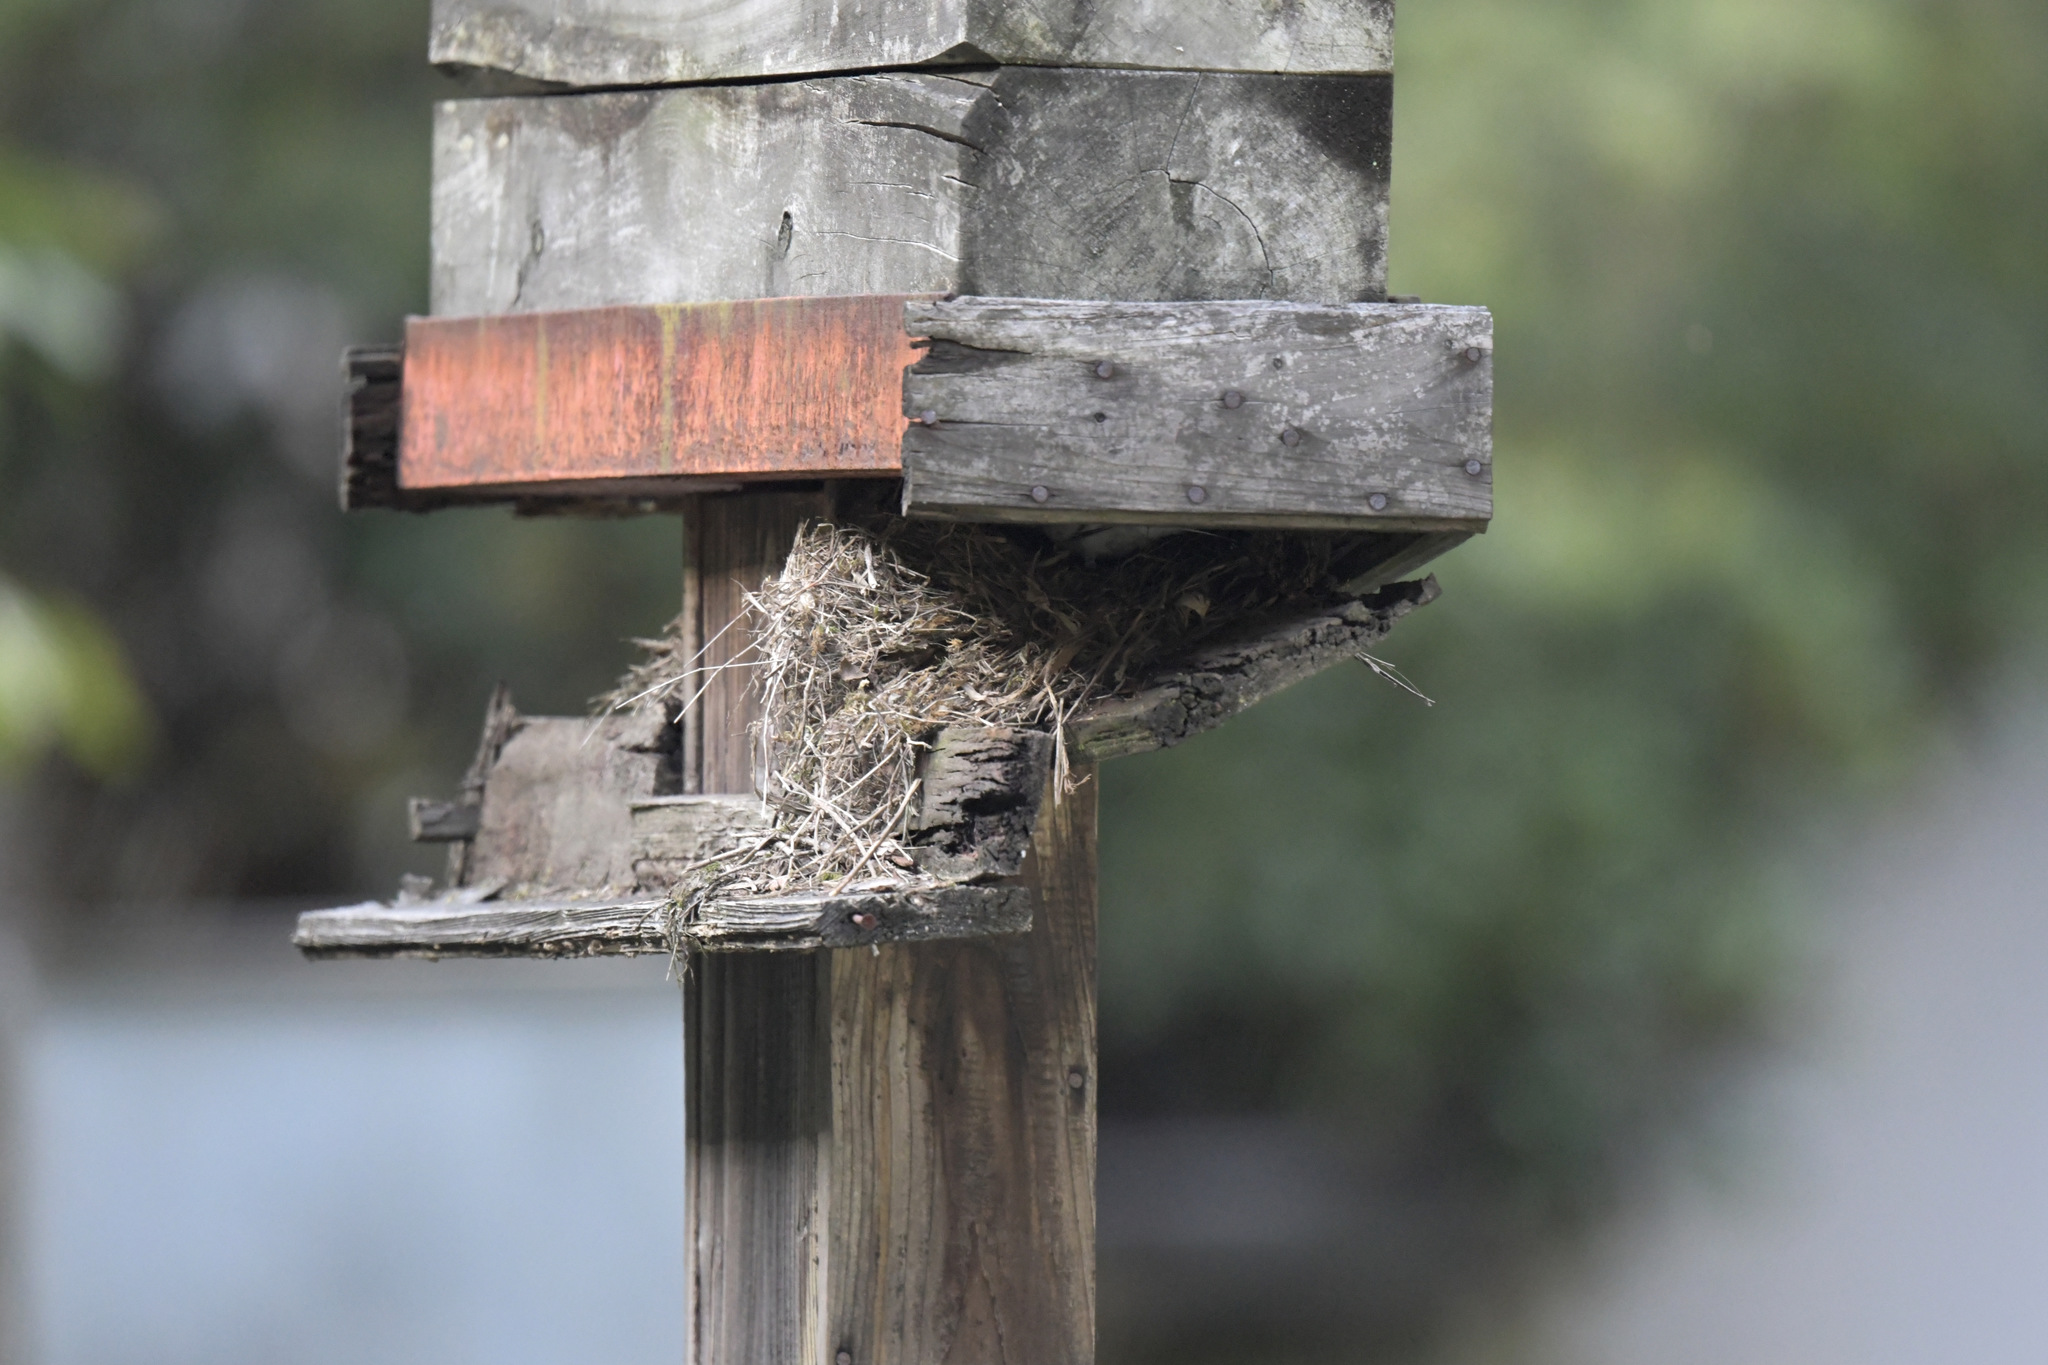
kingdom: Animalia
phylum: Chordata
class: Aves
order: Passeriformes
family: Motacillidae
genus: Motacilla
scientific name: Motacilla alba
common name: White wagtail
